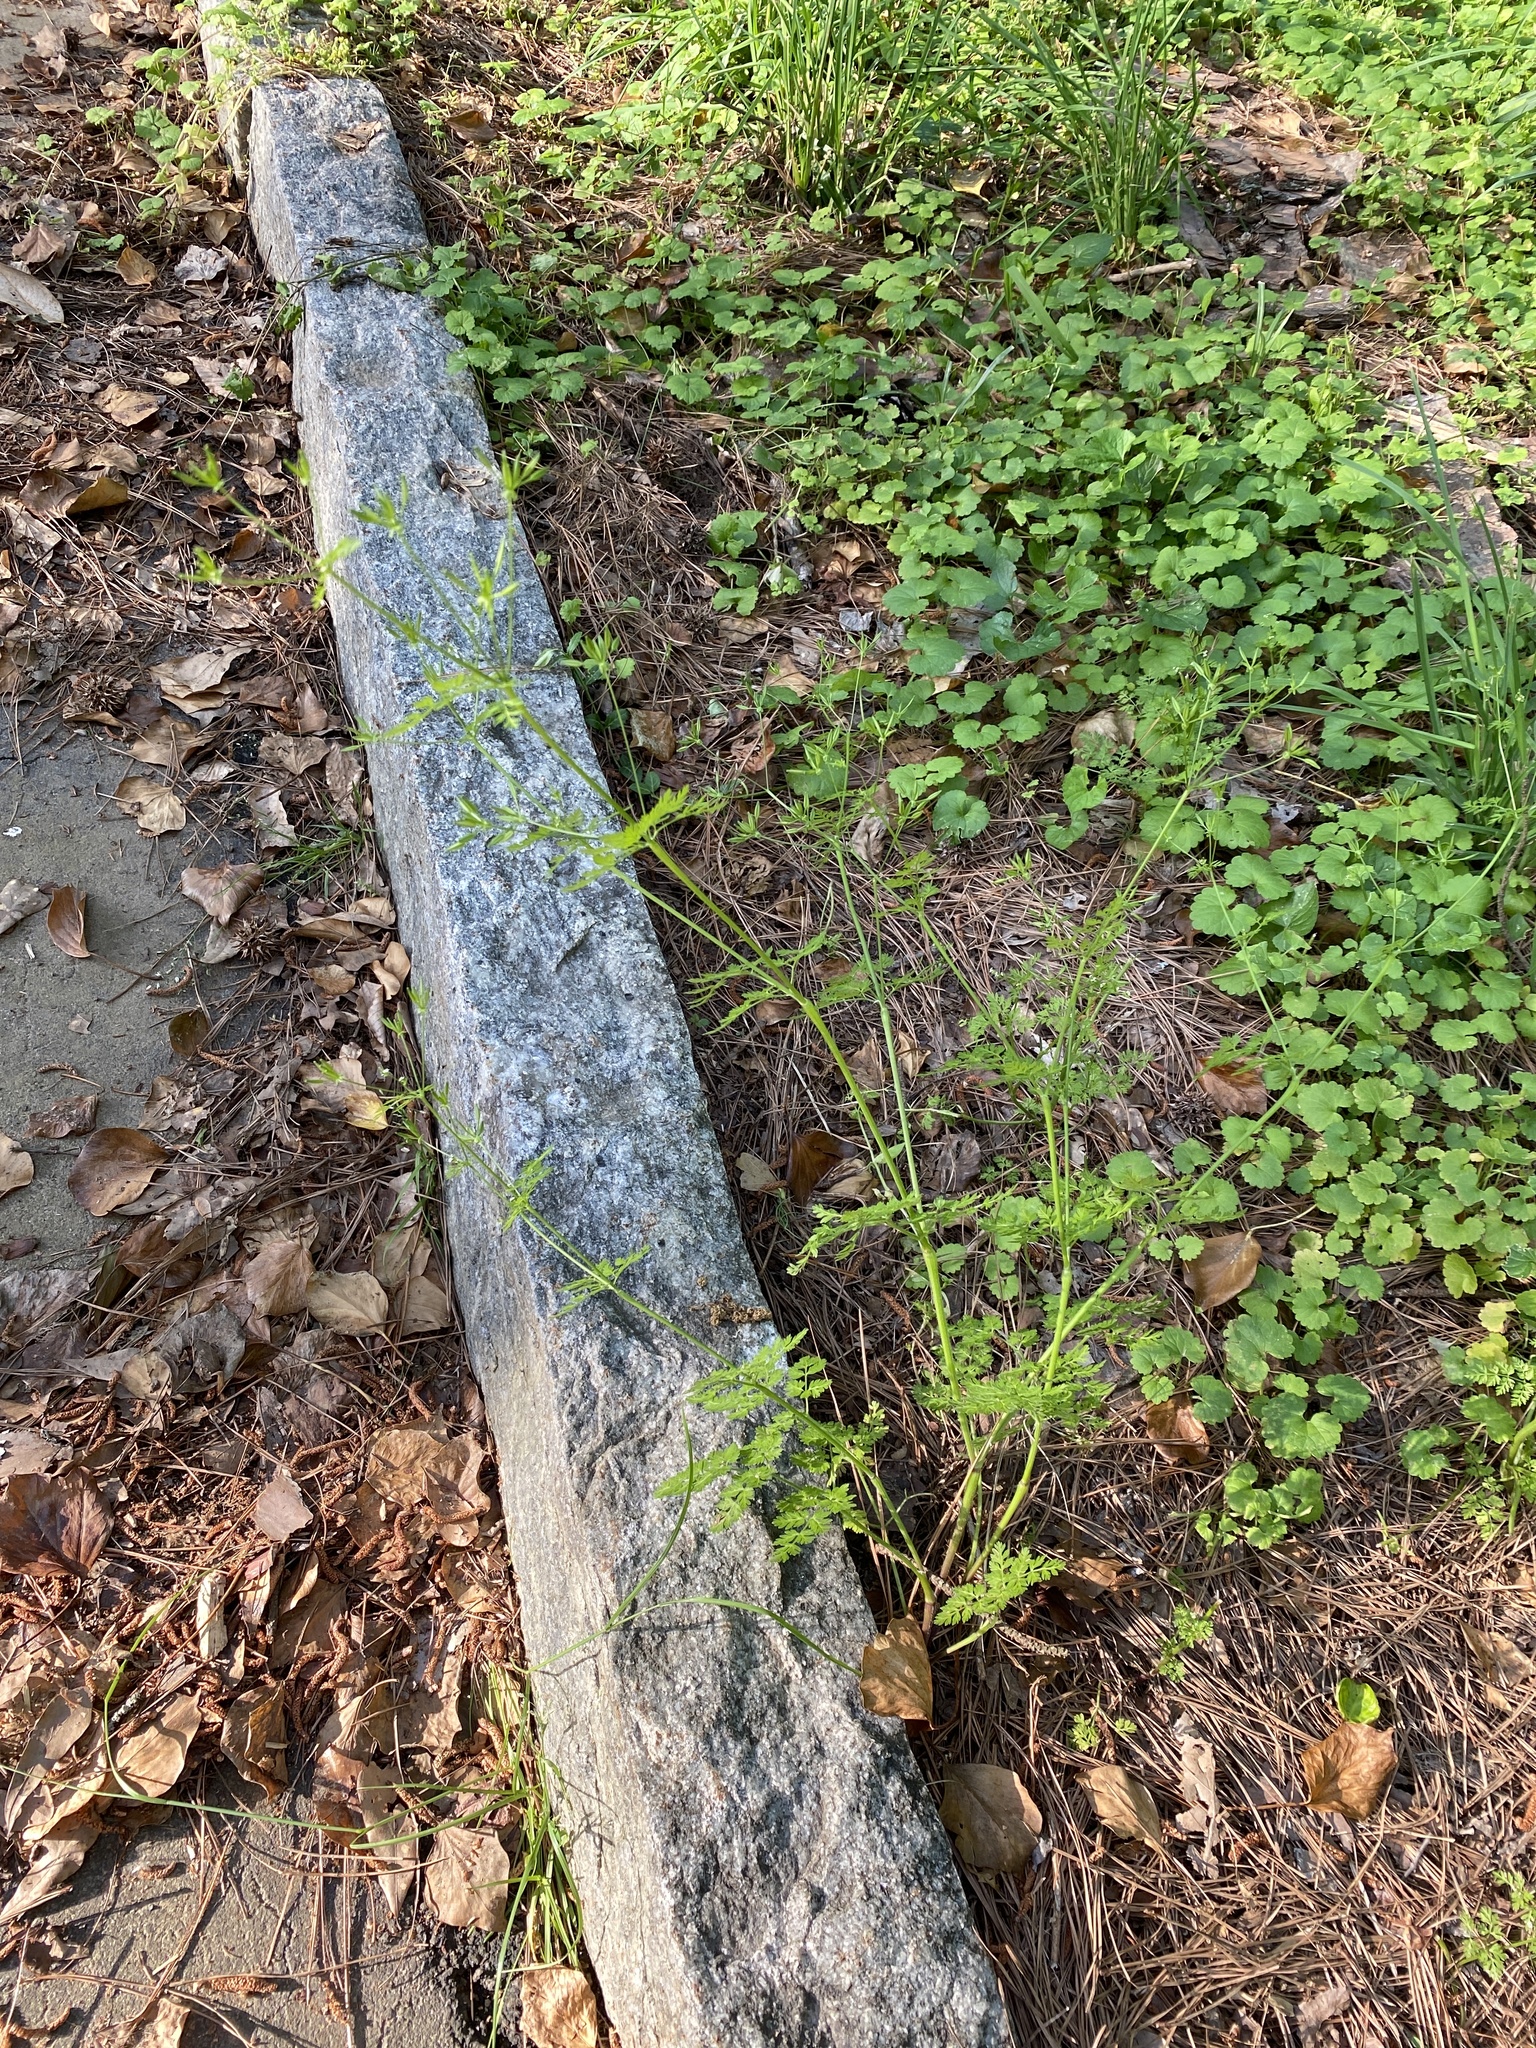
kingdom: Plantae
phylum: Tracheophyta
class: Magnoliopsida
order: Apiales
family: Apiaceae
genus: Chaerophyllum
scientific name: Chaerophyllum tainturieri
